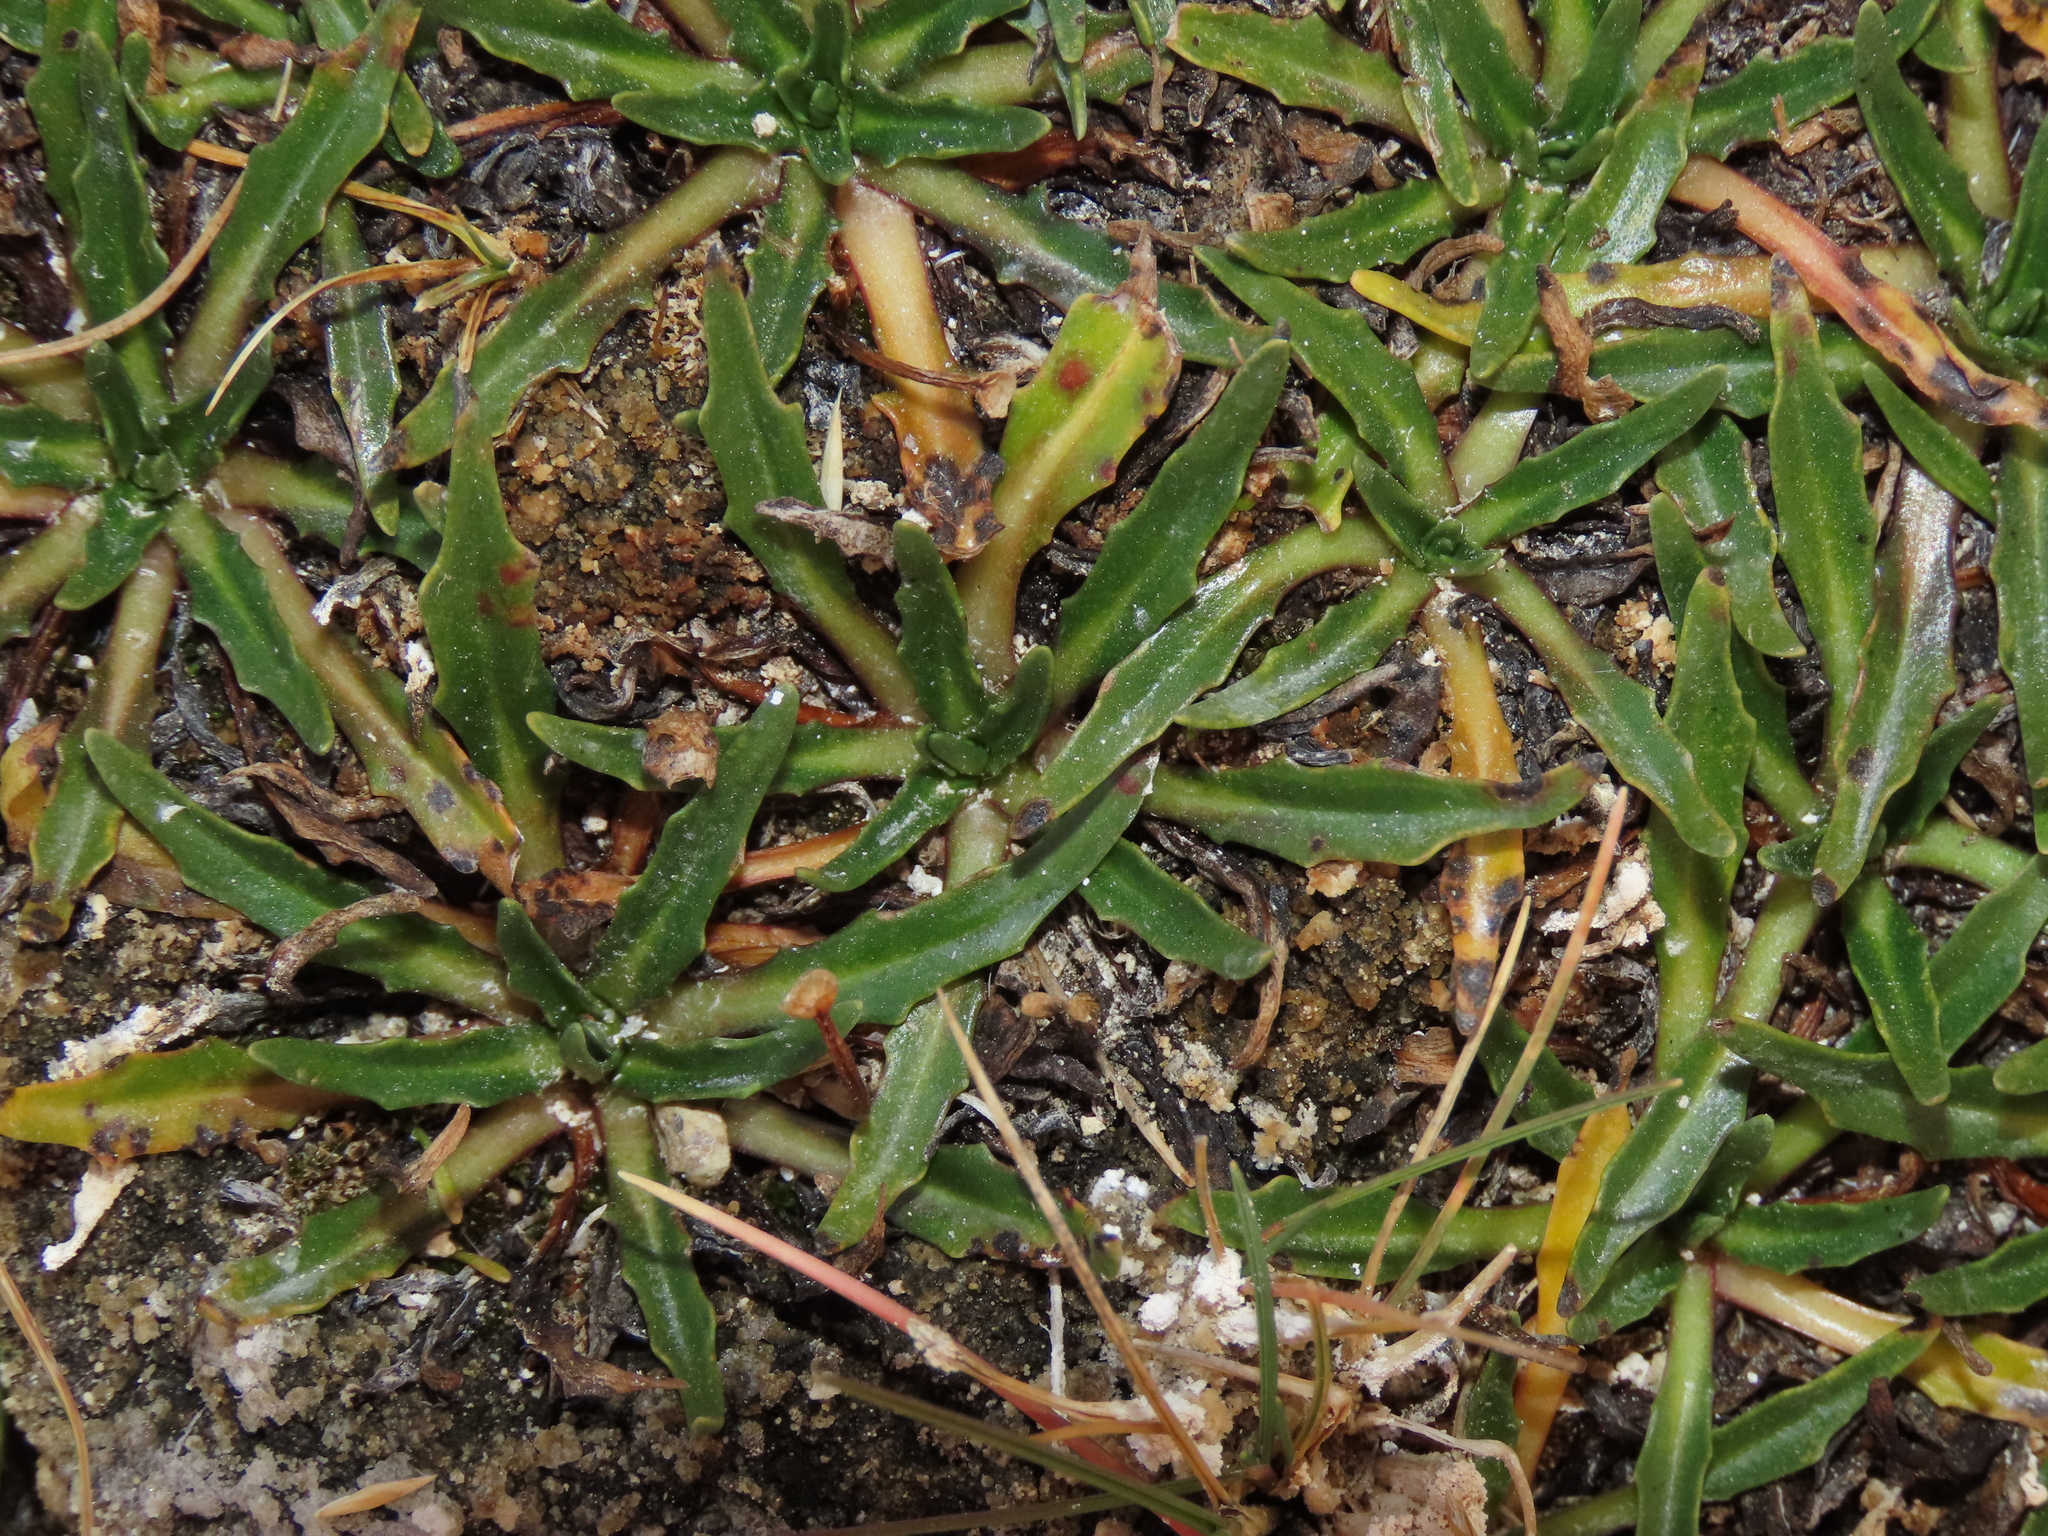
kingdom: Plantae
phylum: Tracheophyta
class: Magnoliopsida
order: Lamiales
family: Plantaginaceae
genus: Plantago
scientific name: Plantago tubulosa
